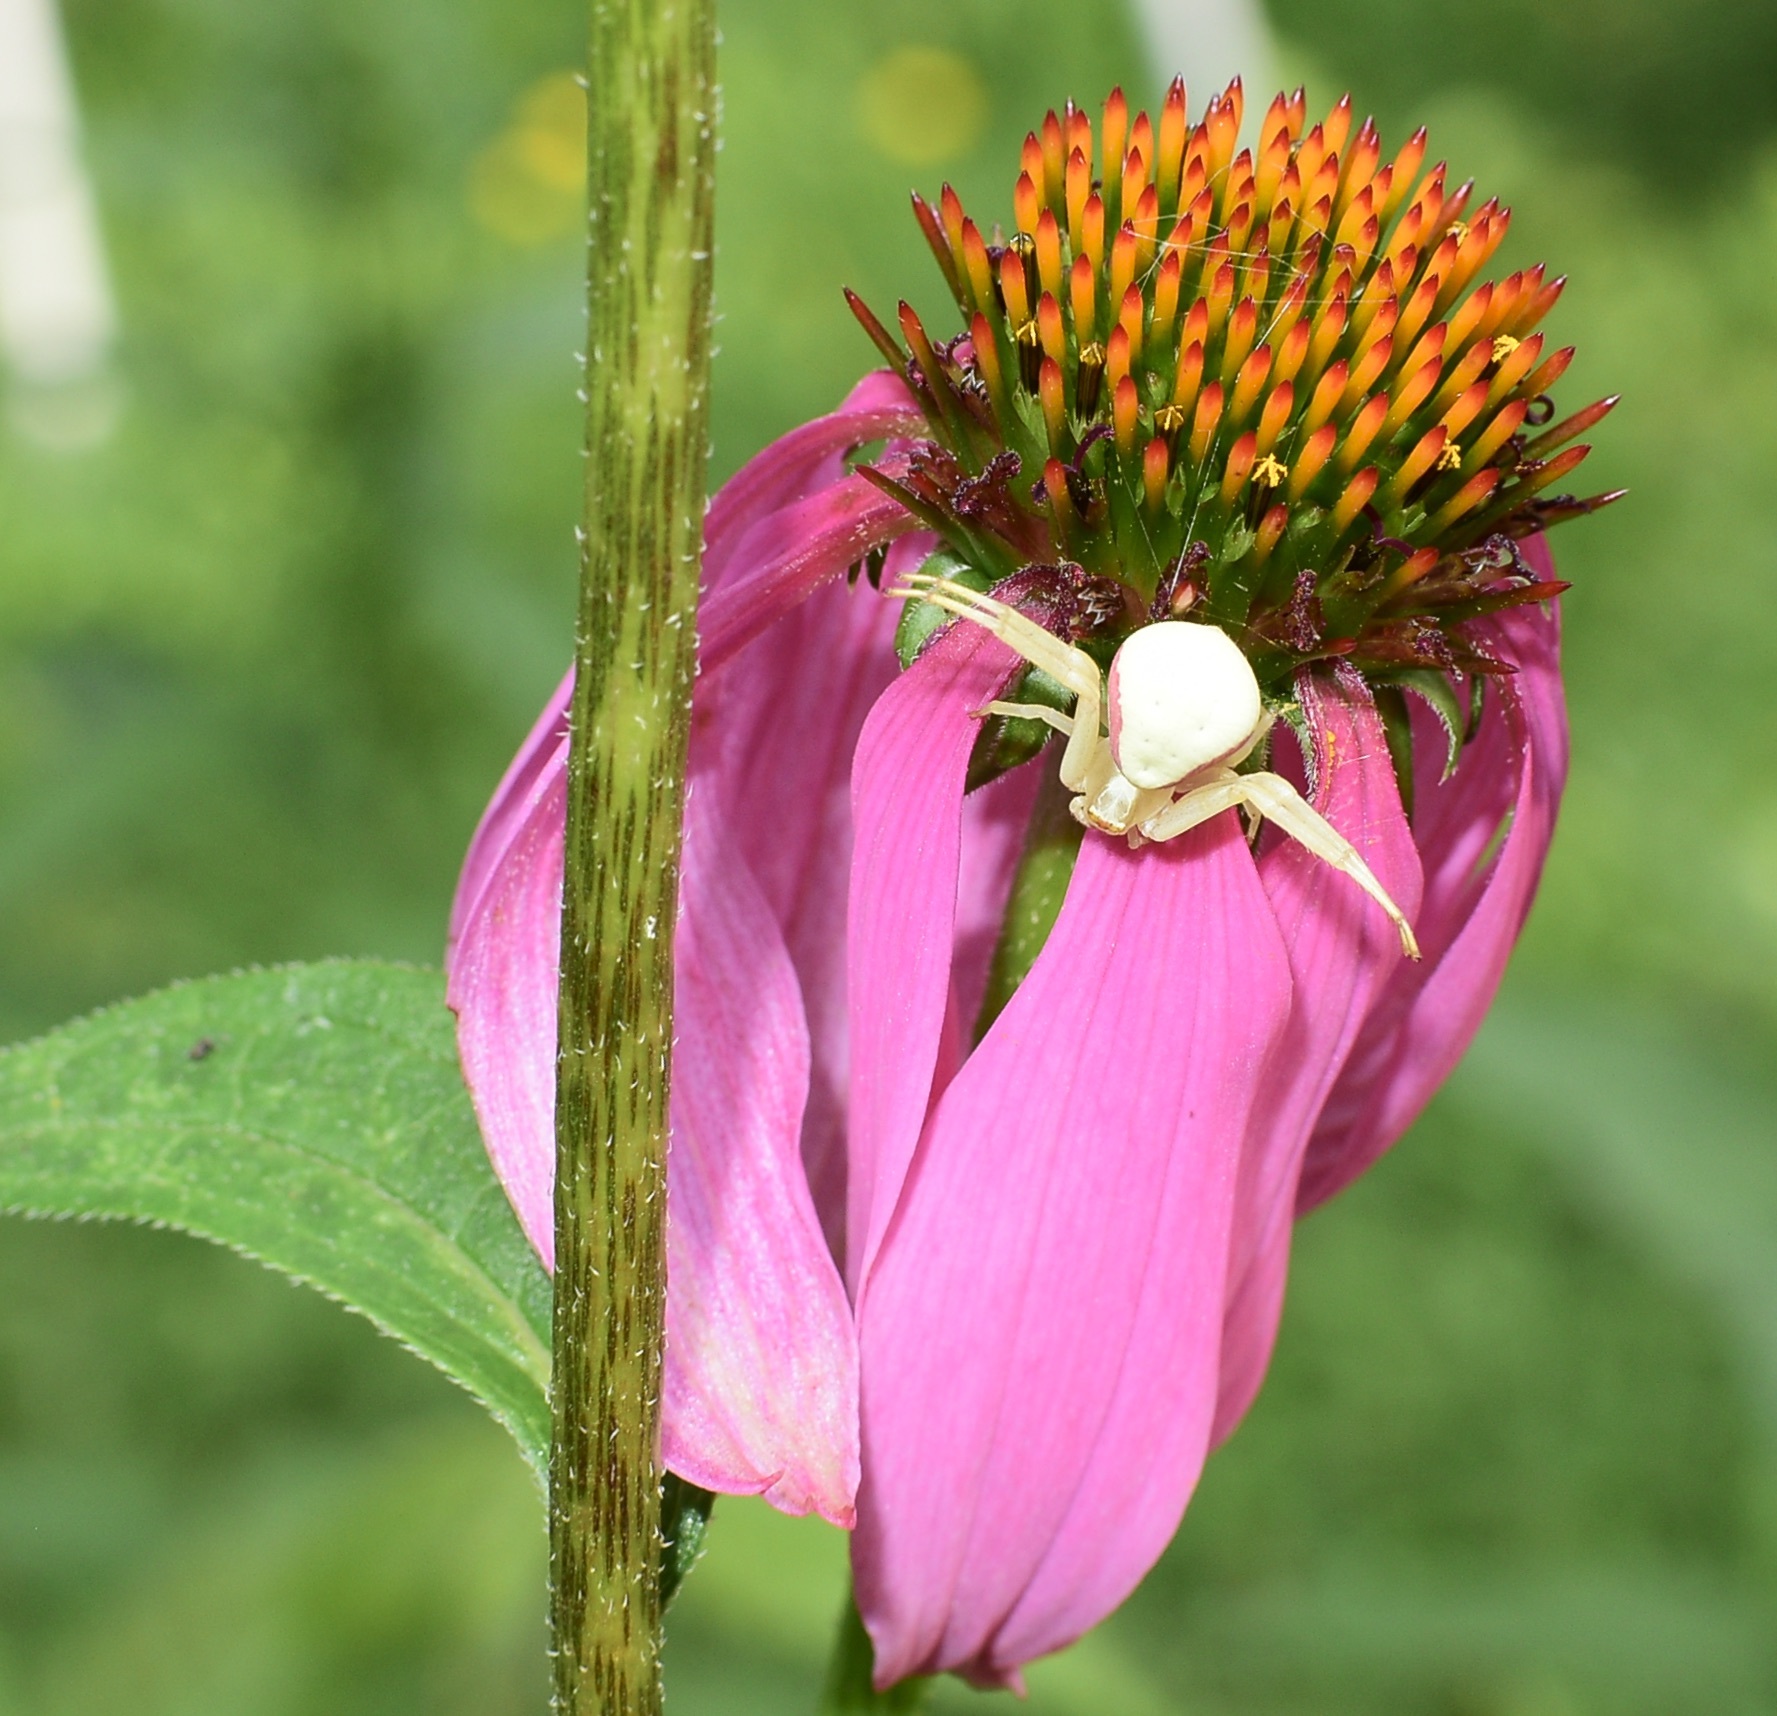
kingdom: Animalia
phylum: Arthropoda
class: Arachnida
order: Araneae
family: Thomisidae
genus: Misumena
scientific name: Misumena vatia
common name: Goldenrod crab spider
